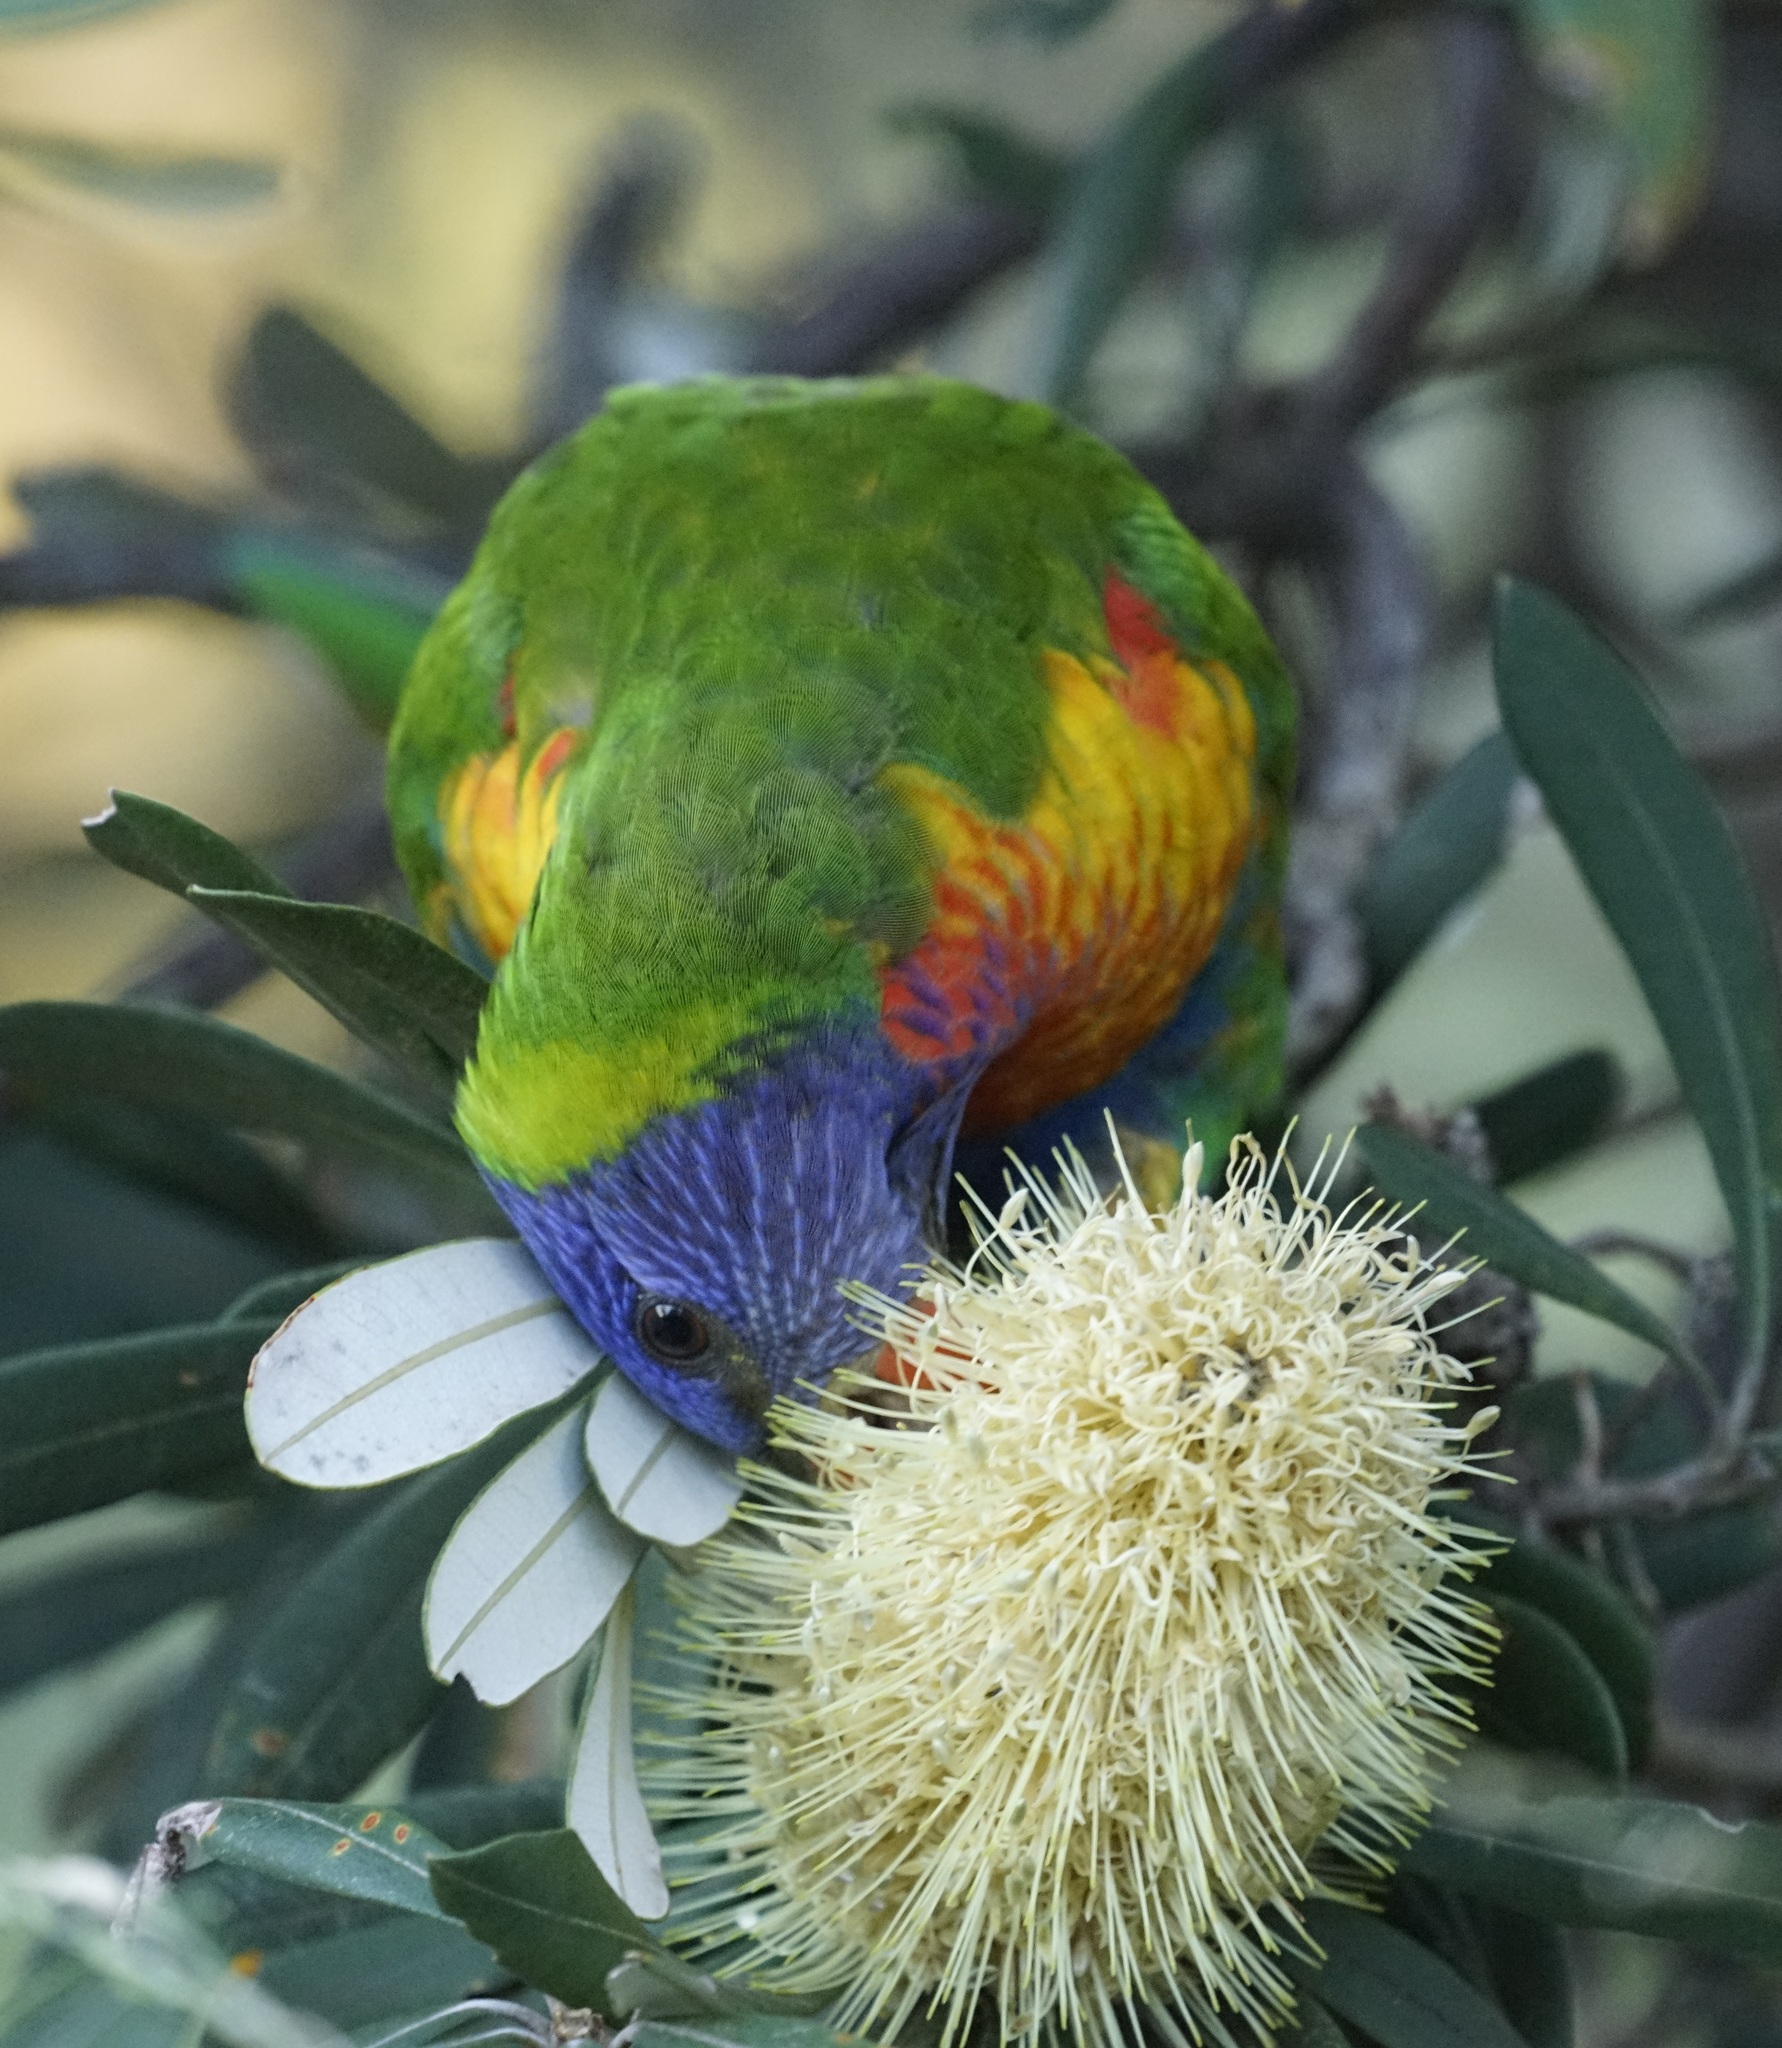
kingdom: Animalia
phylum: Chordata
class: Aves
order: Psittaciformes
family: Psittacidae
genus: Trichoglossus
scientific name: Trichoglossus haematodus
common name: Coconut lorikeet
